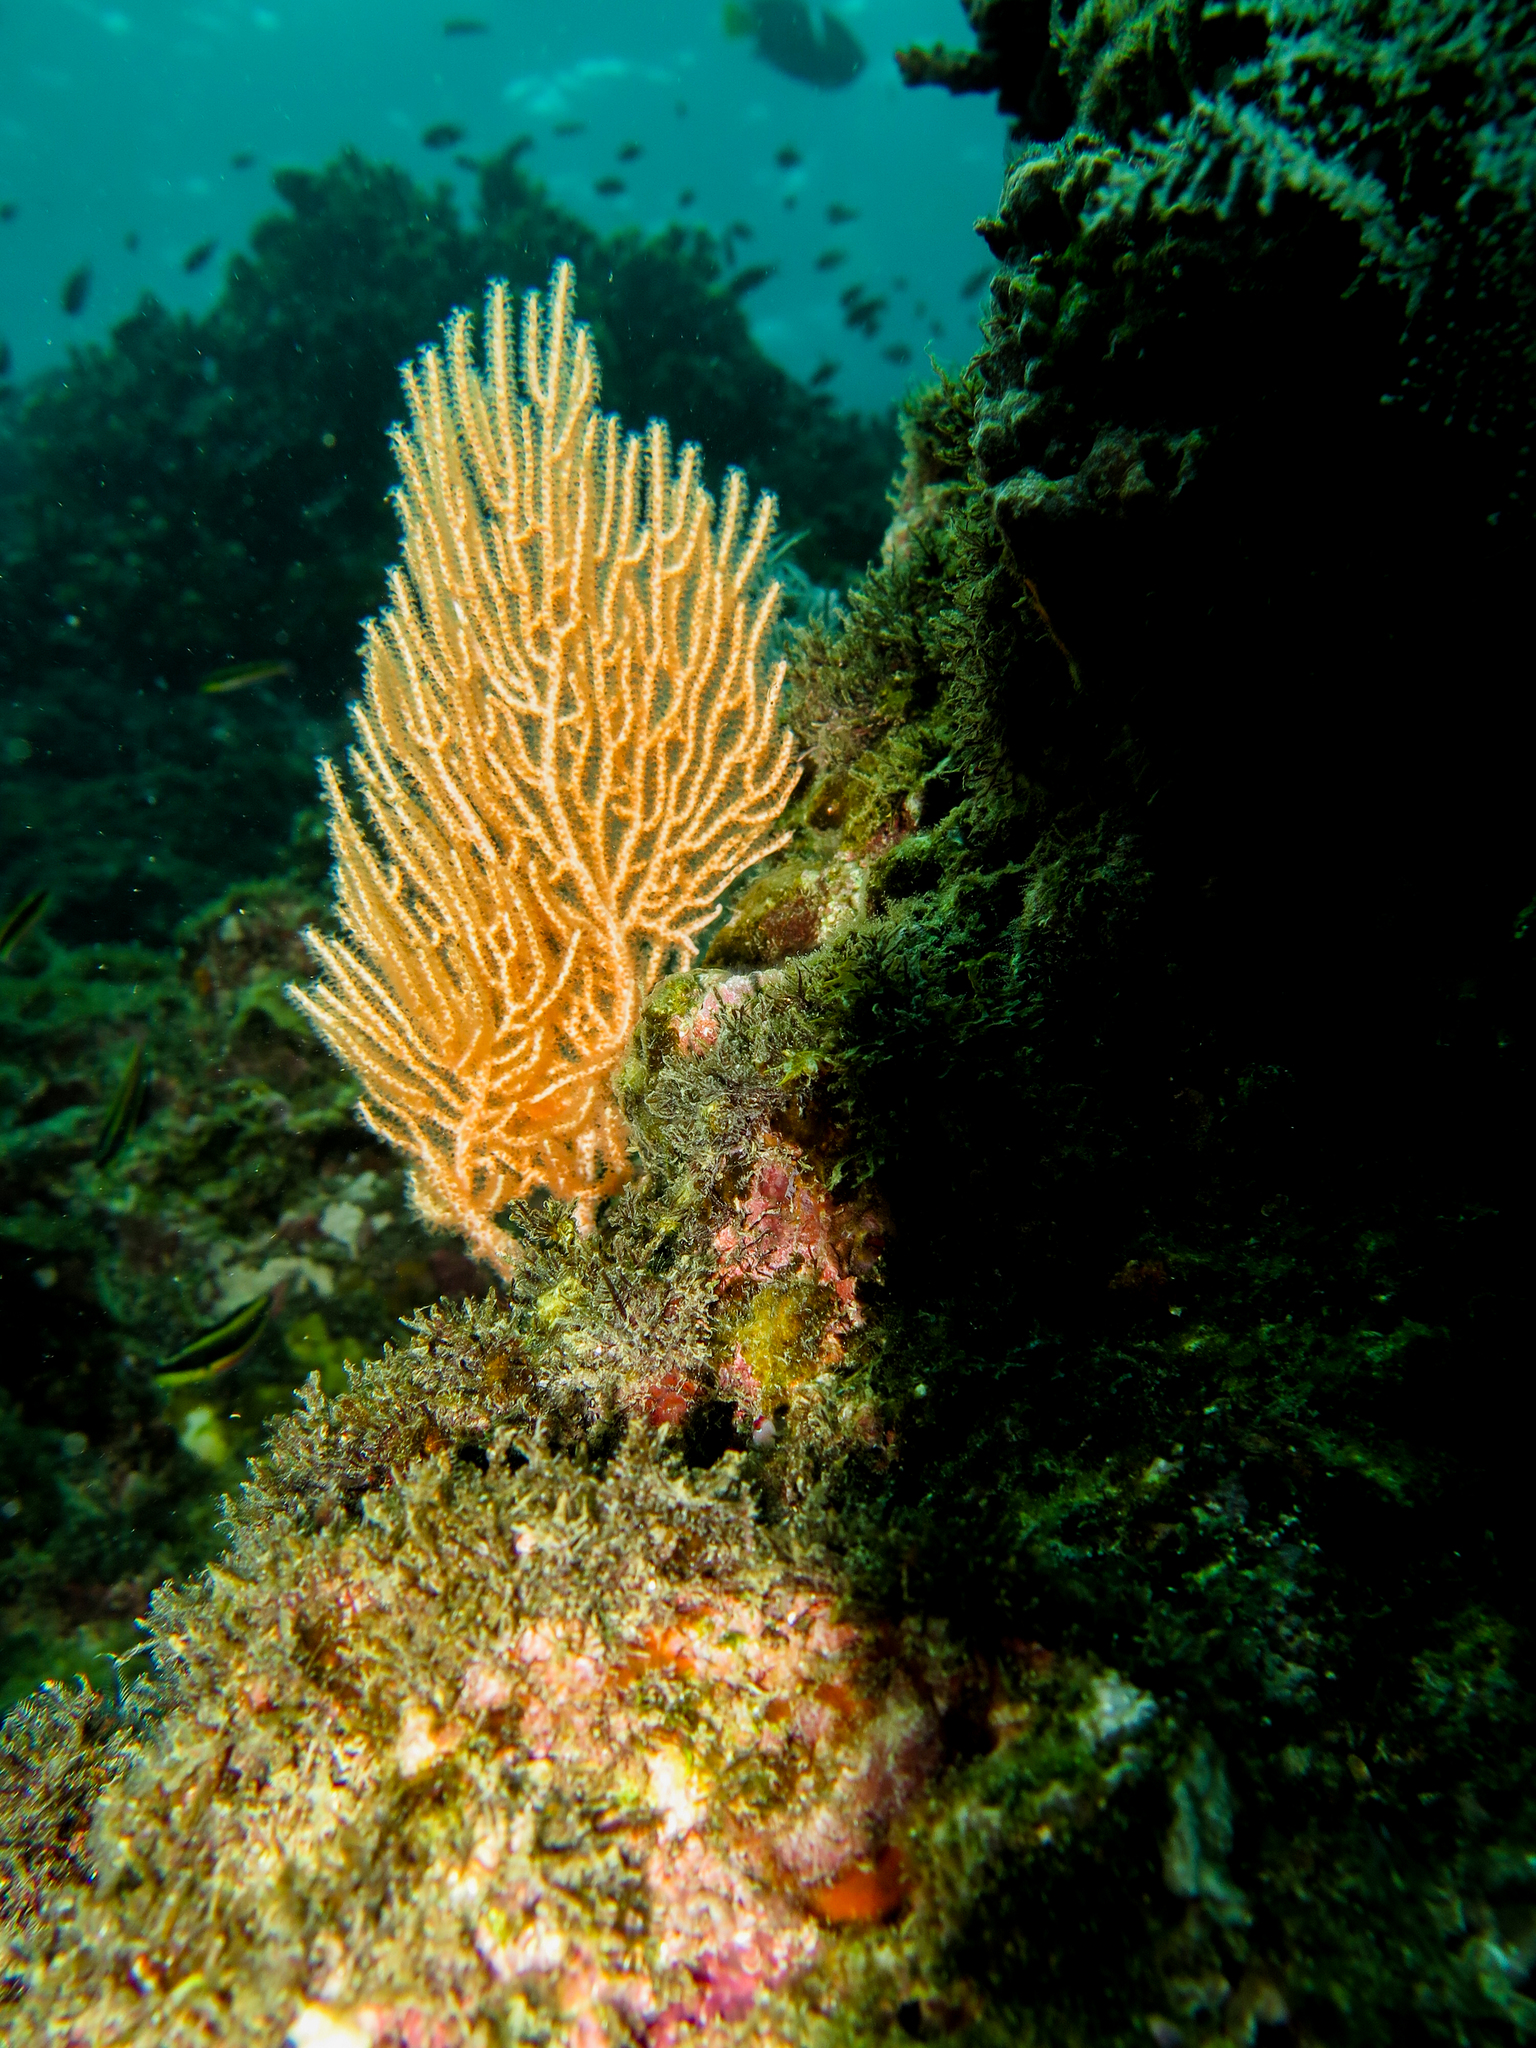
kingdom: Animalia
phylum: Cnidaria
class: Anthozoa
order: Malacalcyonacea
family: Gorgoniidae
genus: Leptogorgia
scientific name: Leptogorgia alba
